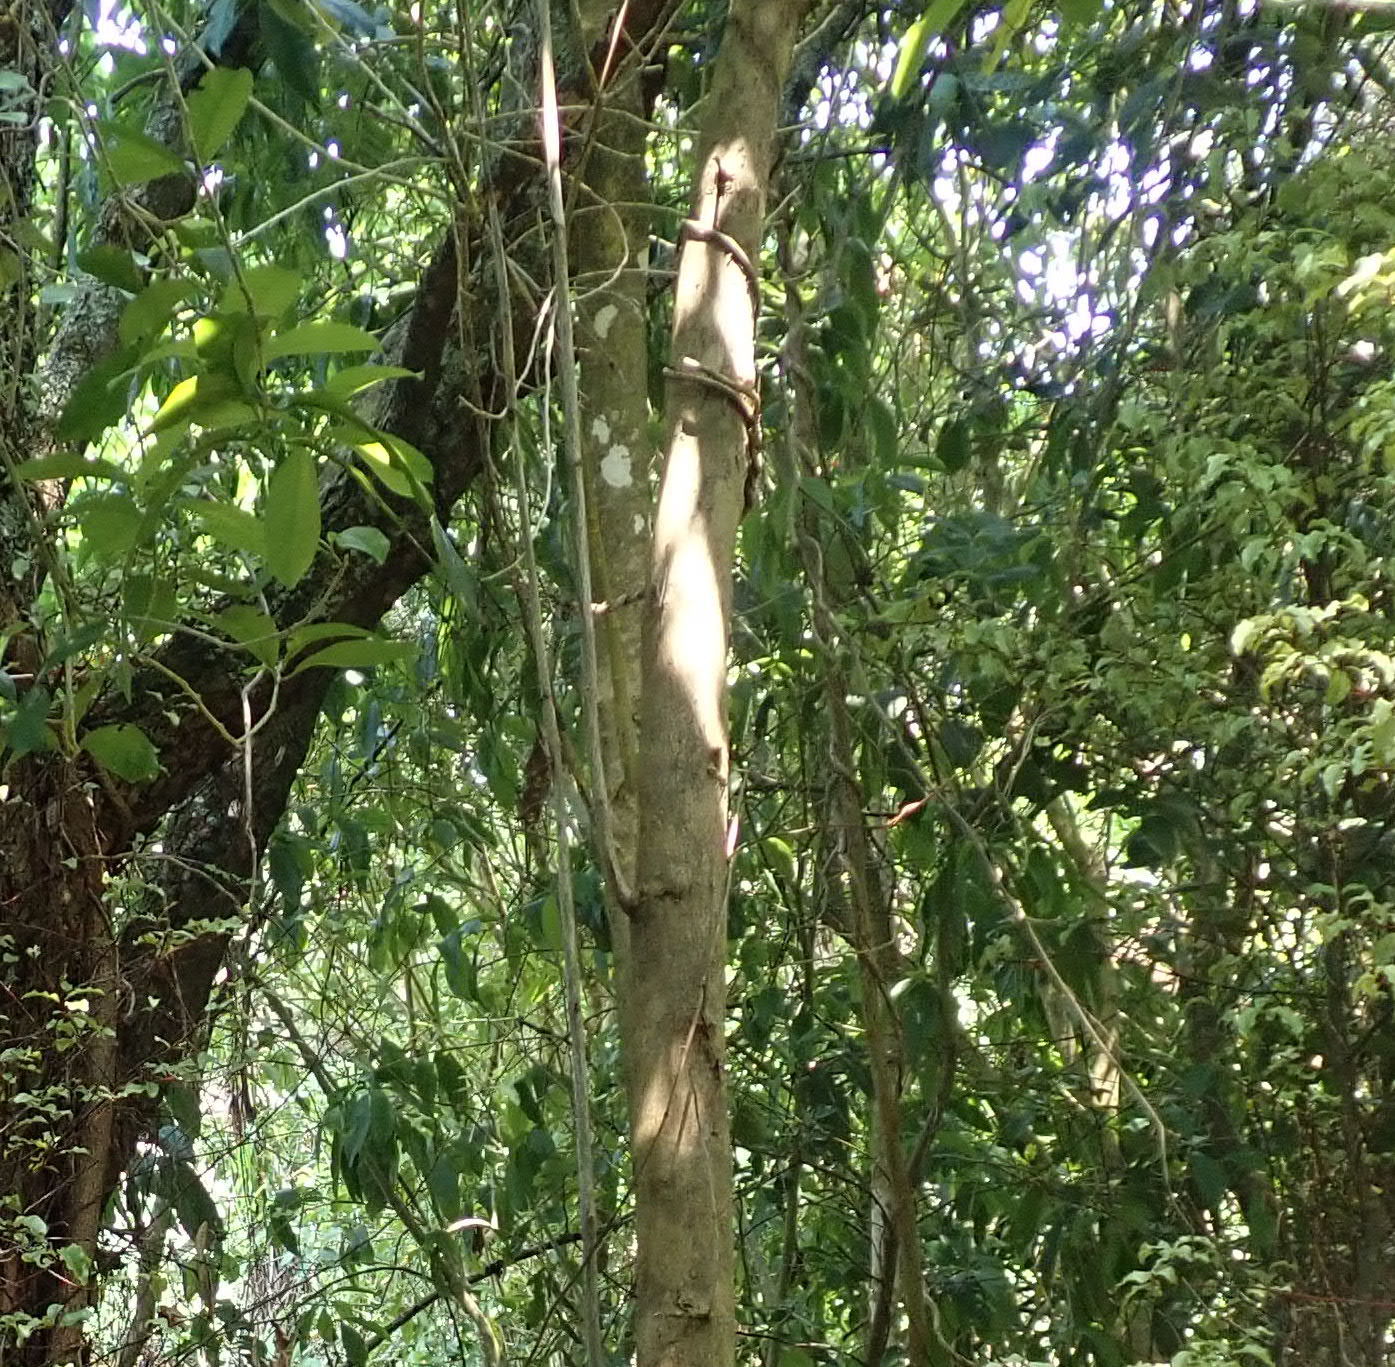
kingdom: Plantae
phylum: Tracheophyta
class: Magnoliopsida
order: Malpighiales
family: Violaceae
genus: Melicytus
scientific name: Melicytus ramiflorus
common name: Mahoe
